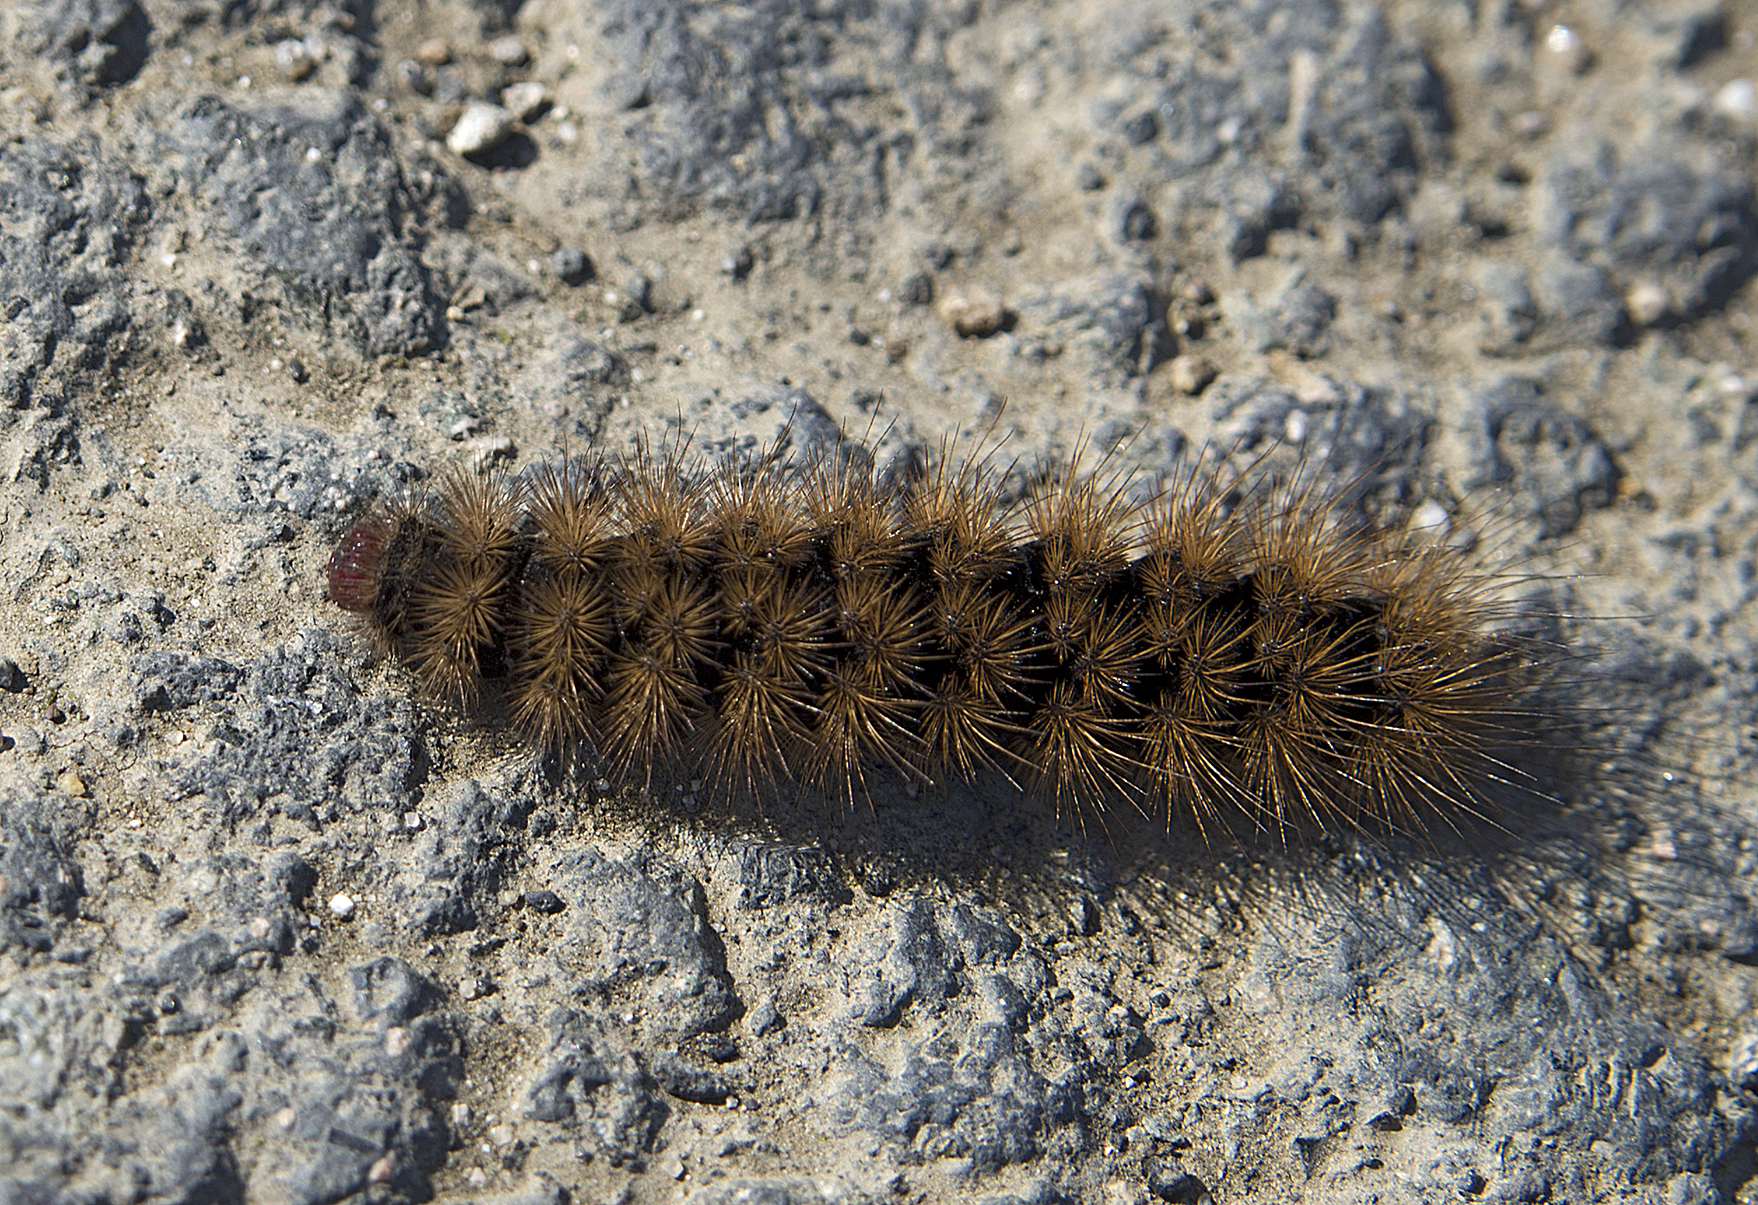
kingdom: Animalia
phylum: Arthropoda
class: Insecta
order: Lepidoptera
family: Erebidae
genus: Epicallia
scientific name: Epicallia villica
